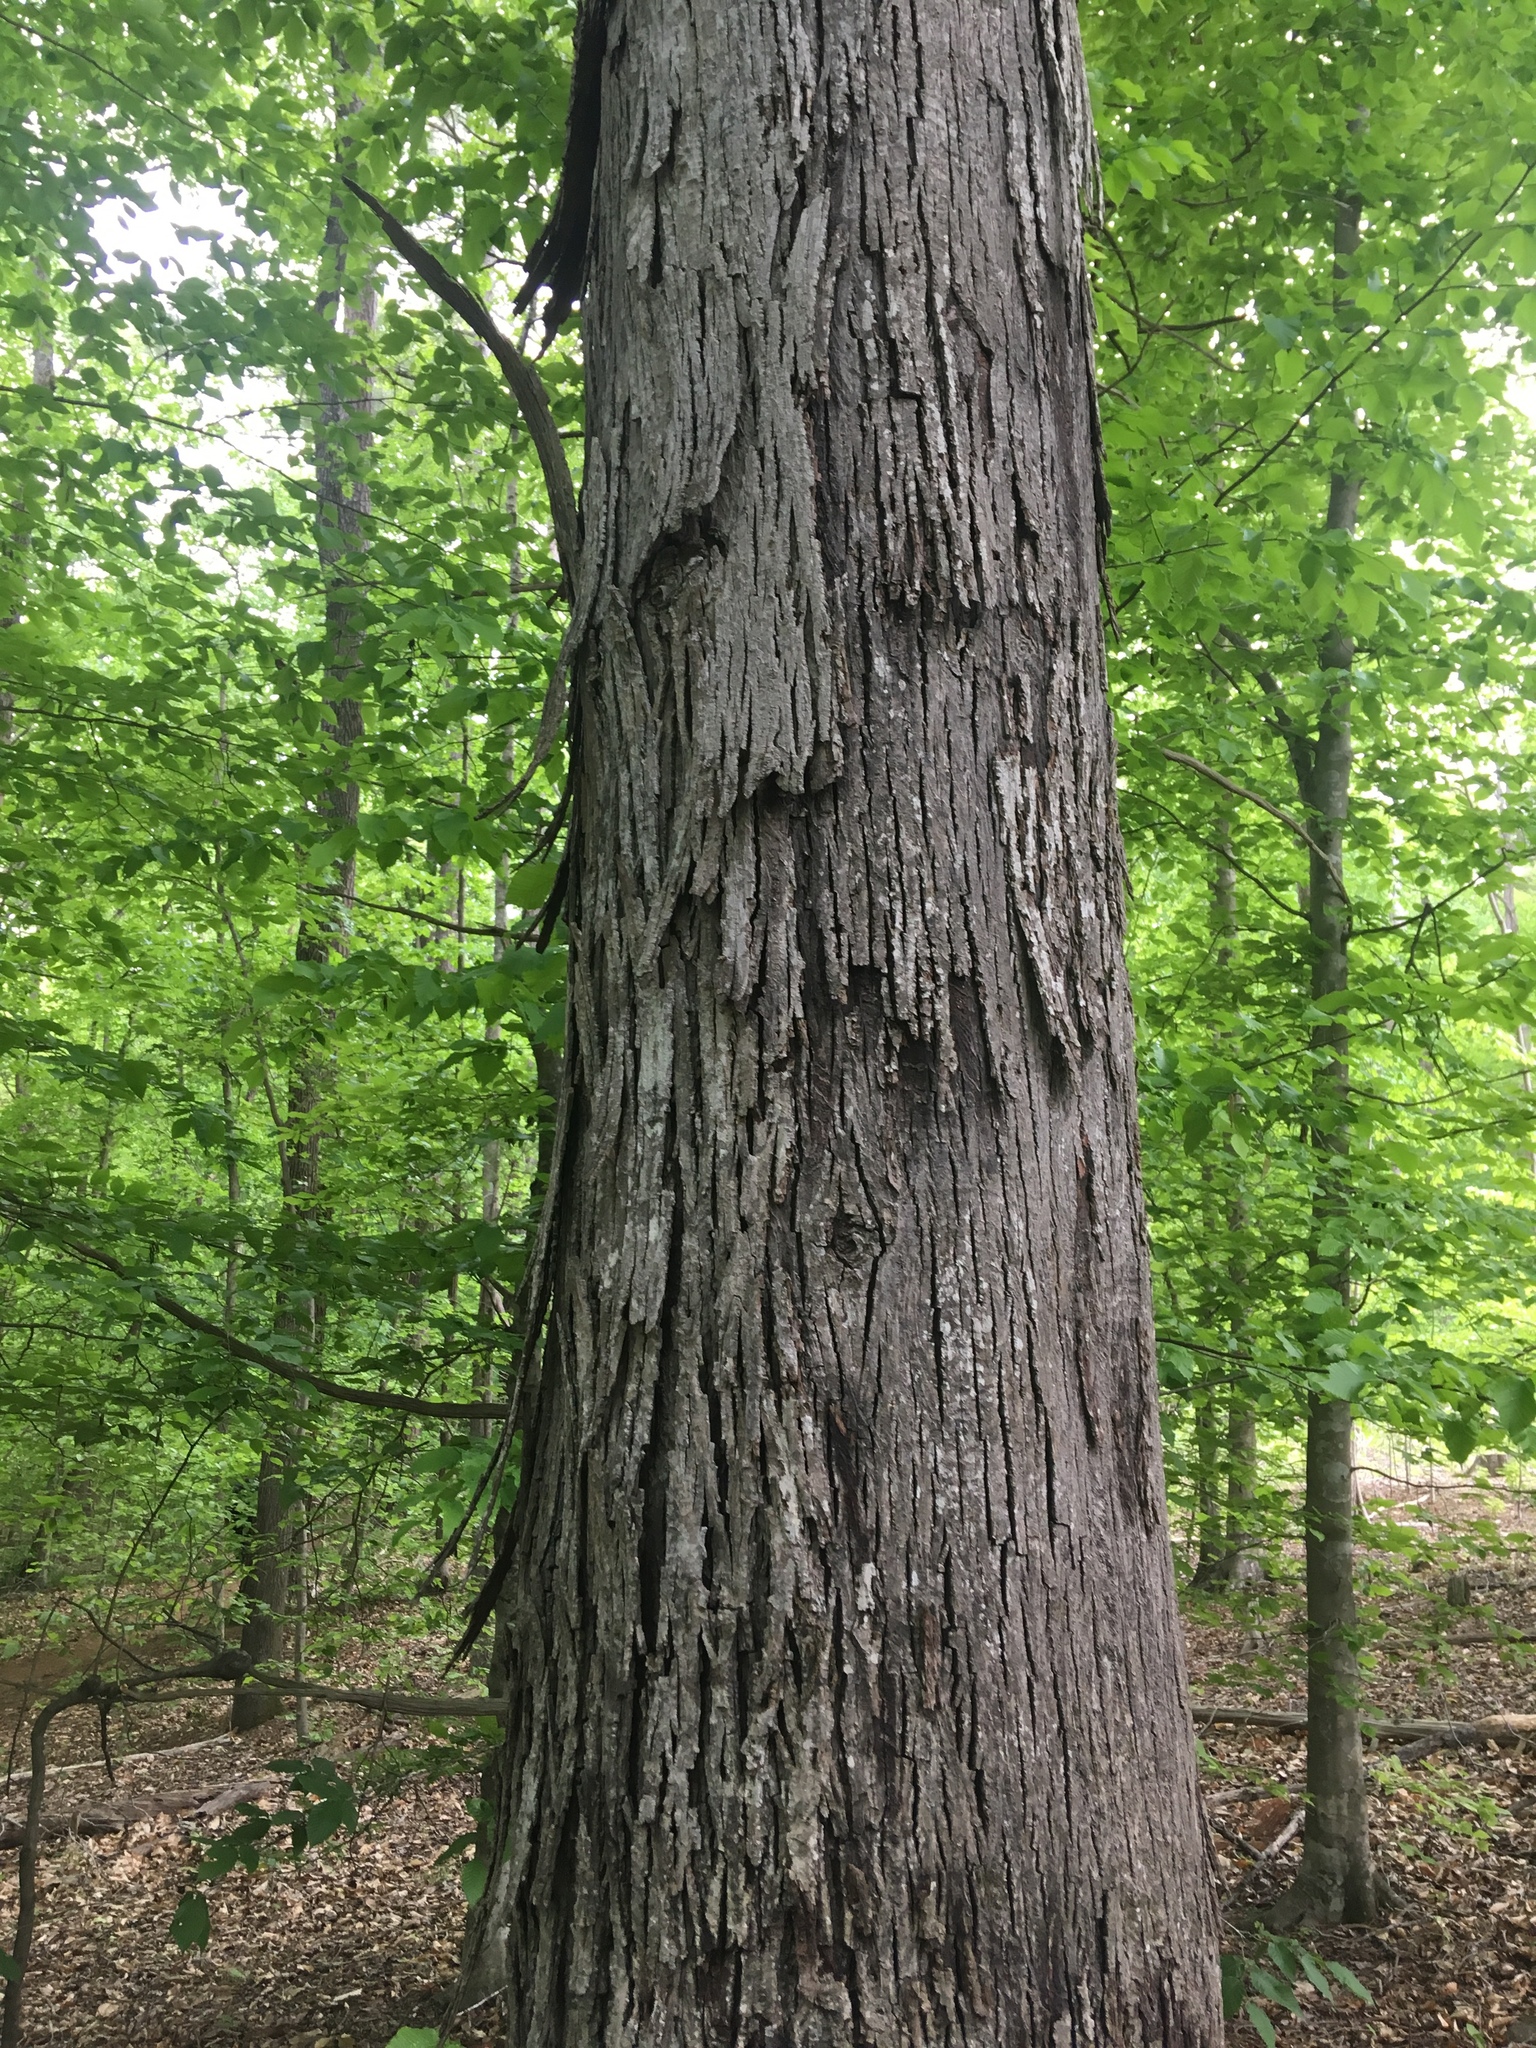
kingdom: Plantae
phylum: Tracheophyta
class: Magnoliopsida
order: Fagales
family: Juglandaceae
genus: Carya
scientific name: Carya ovata
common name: Shagbark hickory
